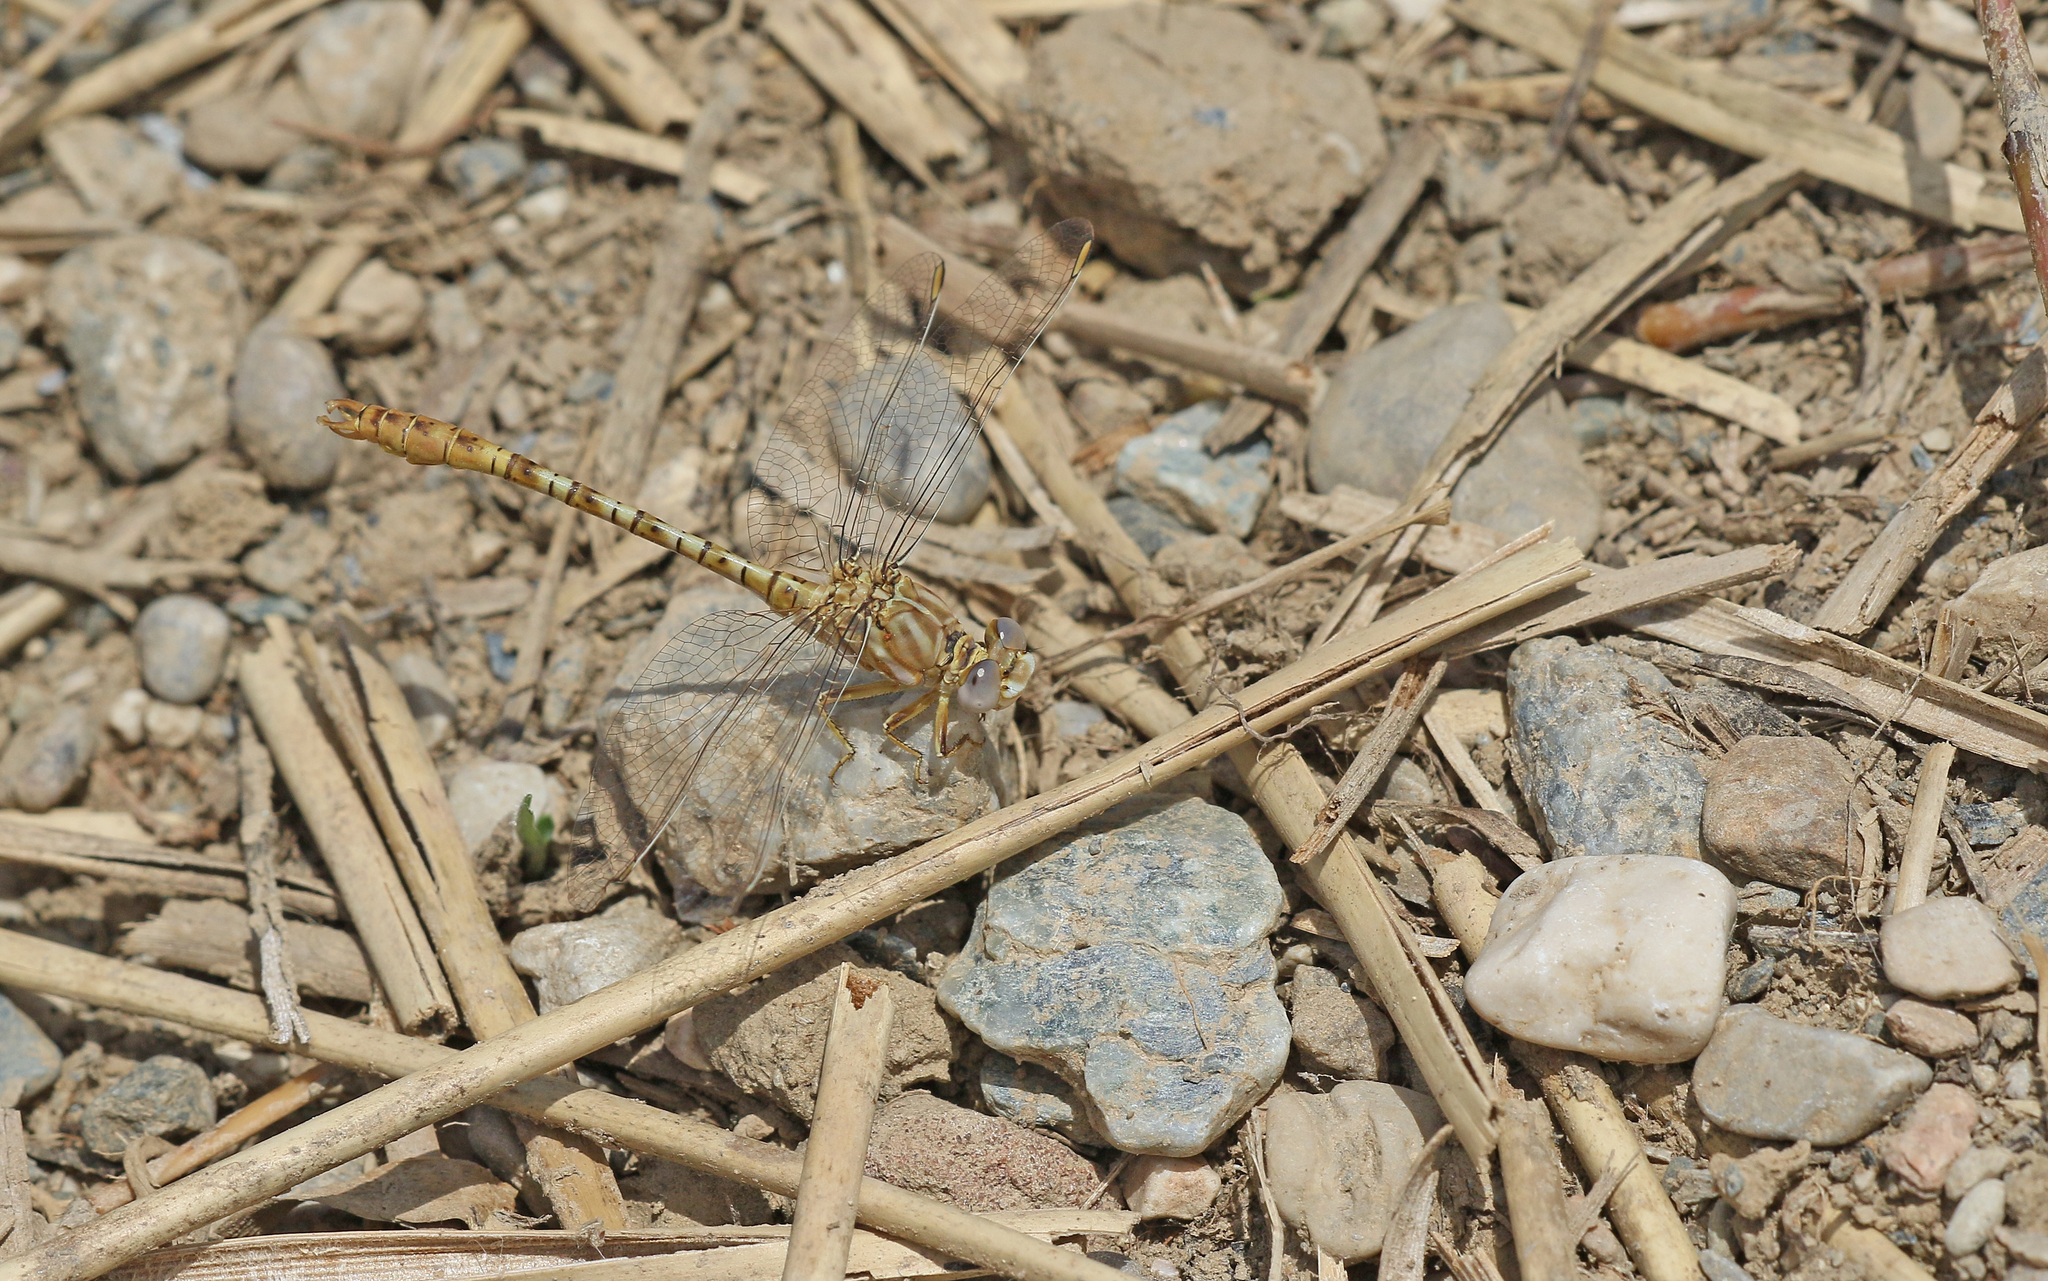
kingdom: Animalia
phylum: Arthropoda
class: Insecta
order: Odonata
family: Gomphidae
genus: Onychogomphus
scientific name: Onychogomphus costae
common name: Faded pincertail
